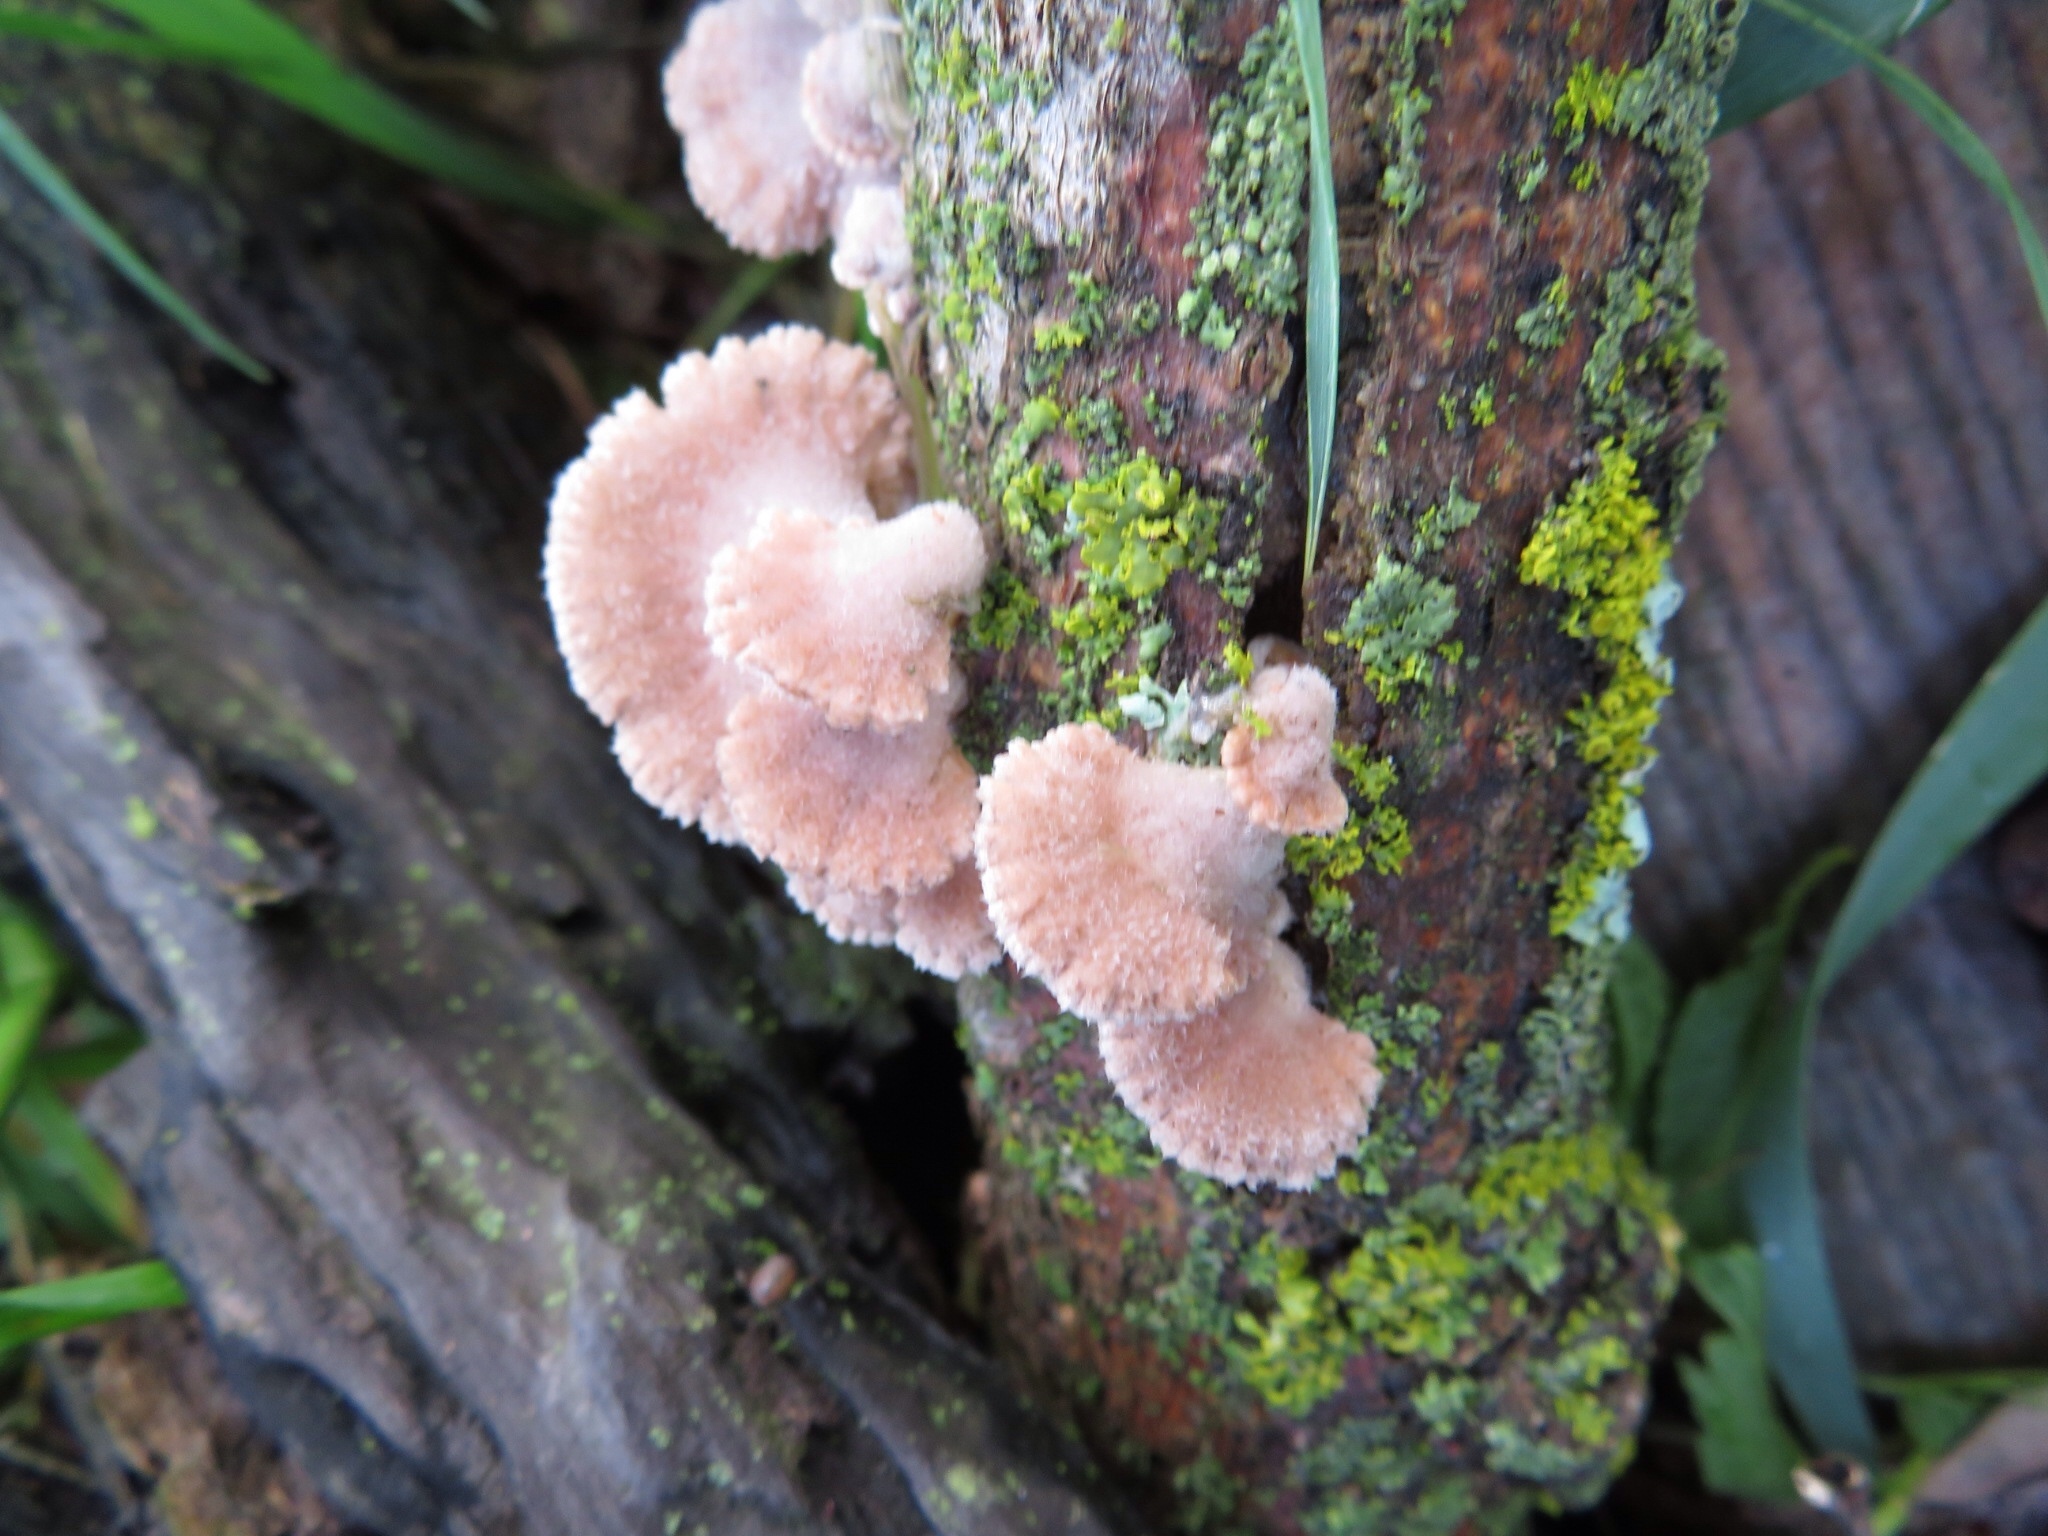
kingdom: Fungi
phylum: Basidiomycota
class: Agaricomycetes
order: Agaricales
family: Schizophyllaceae
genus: Schizophyllum
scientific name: Schizophyllum commune
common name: Common porecrust
